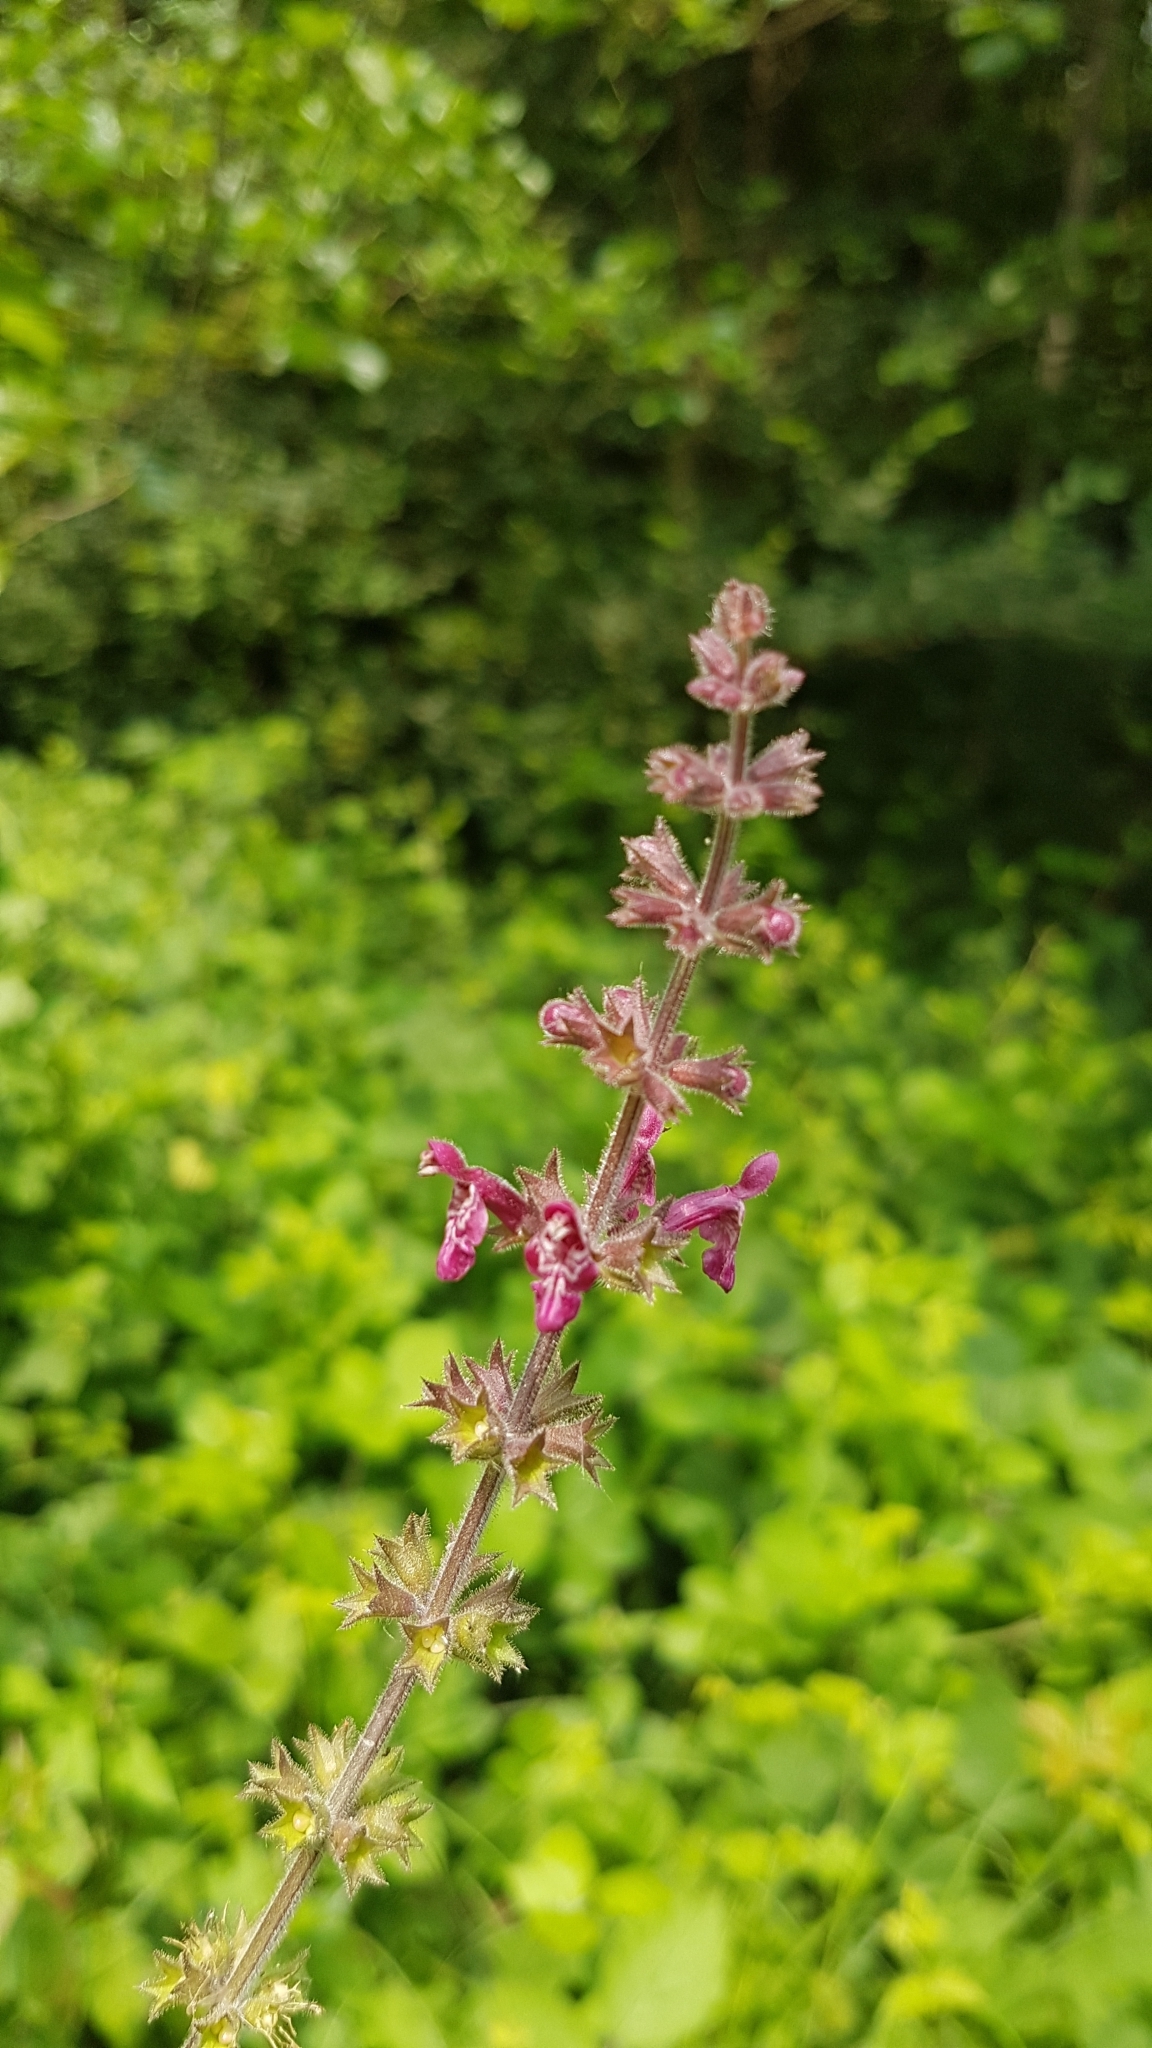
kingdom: Plantae
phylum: Tracheophyta
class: Magnoliopsida
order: Lamiales
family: Lamiaceae
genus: Stachys
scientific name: Stachys sylvatica
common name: Hedge woundwort
